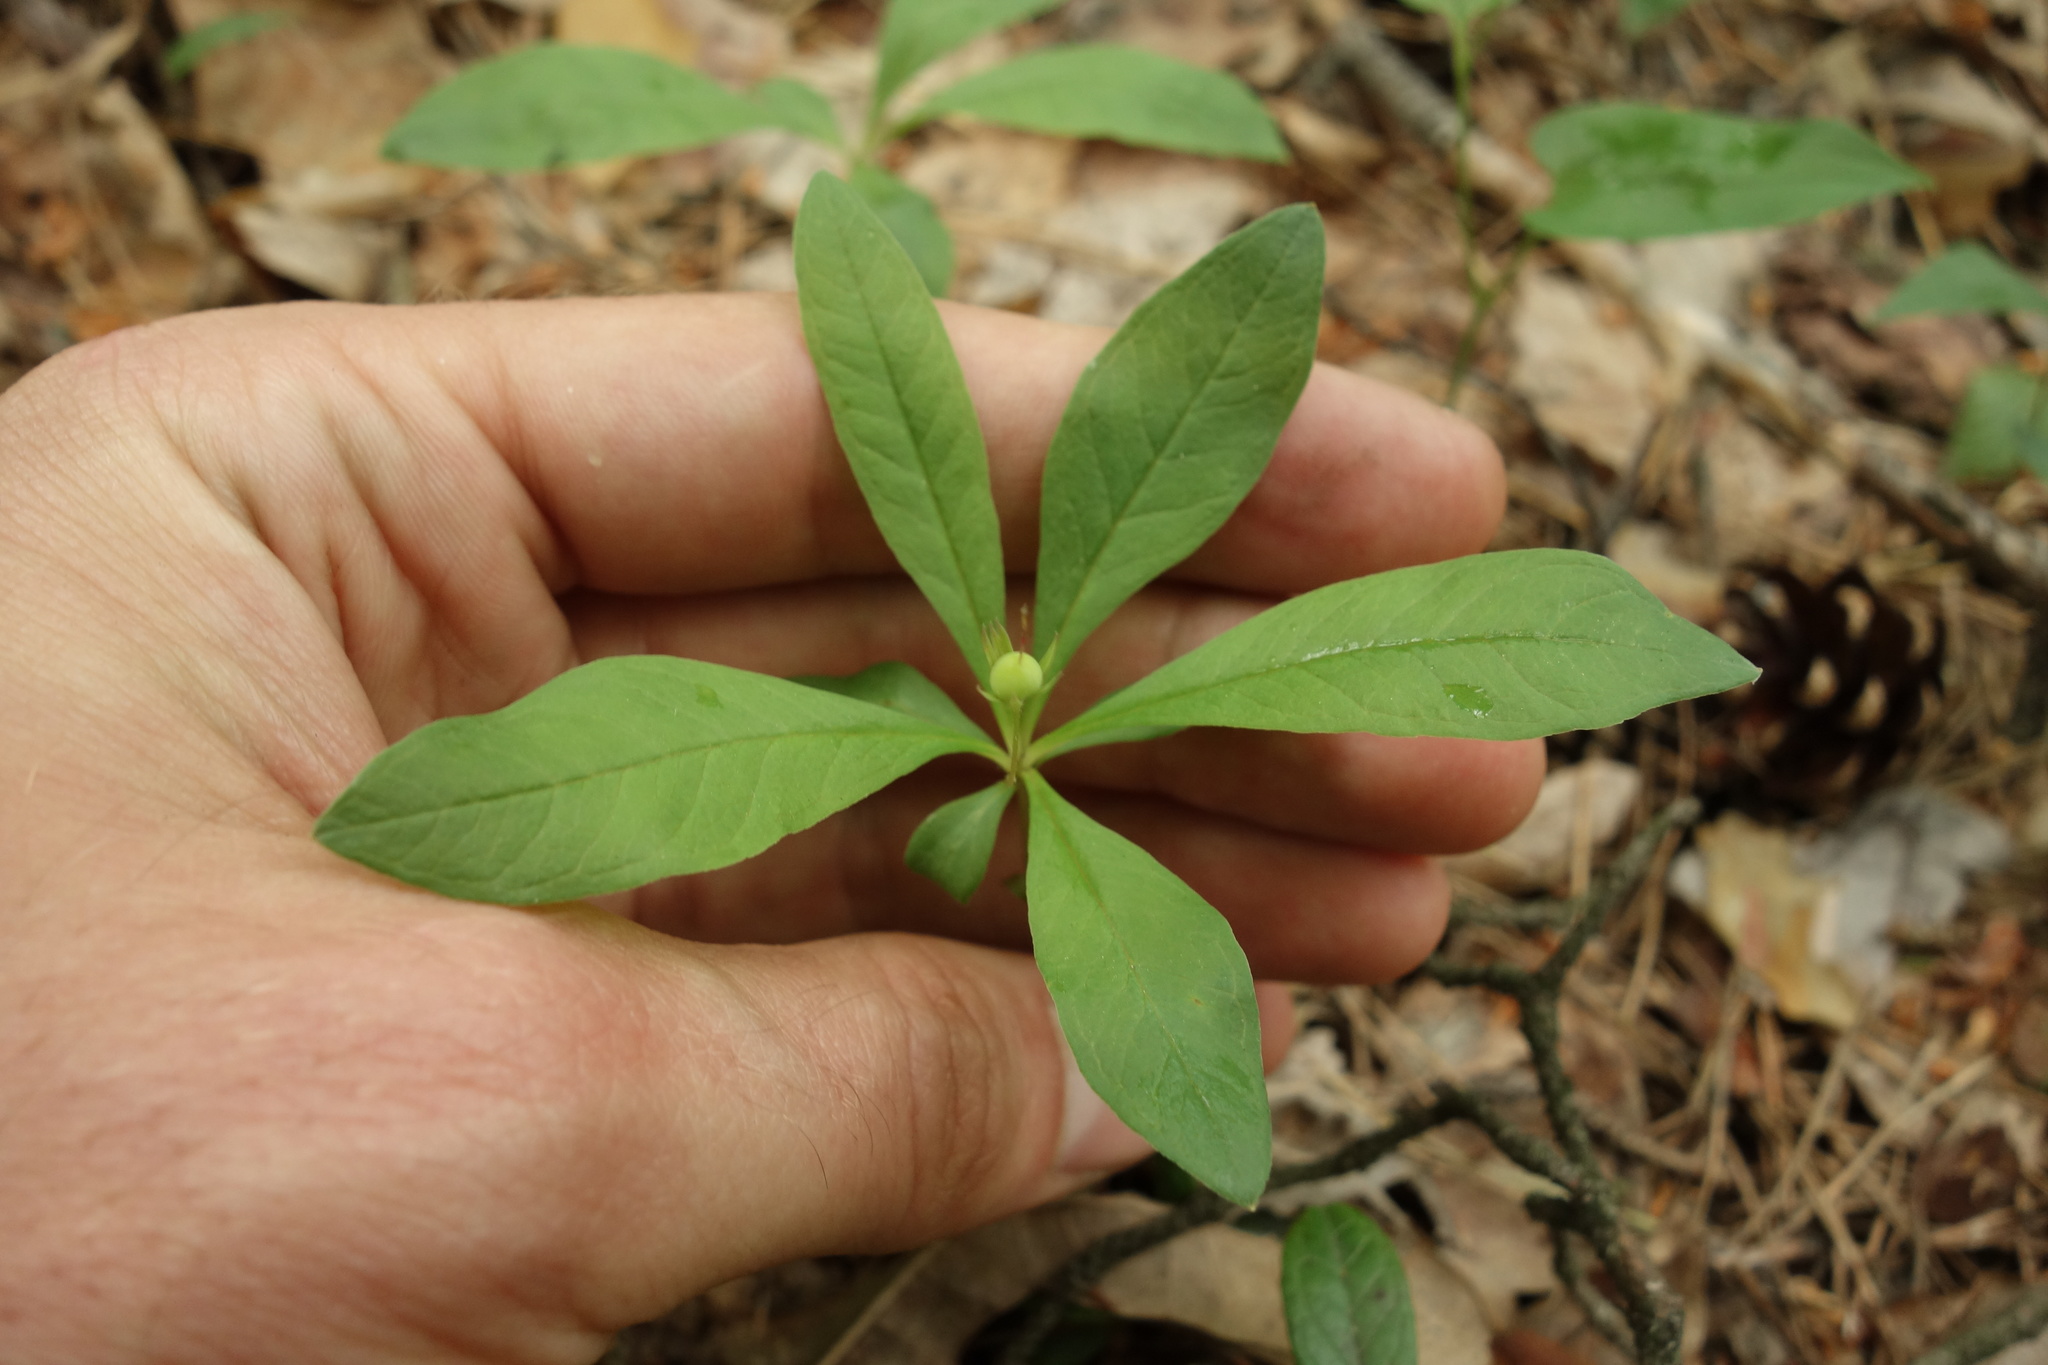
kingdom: Plantae
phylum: Tracheophyta
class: Magnoliopsida
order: Ericales
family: Primulaceae
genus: Lysimachia
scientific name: Lysimachia europaea
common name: Arctic starflower
